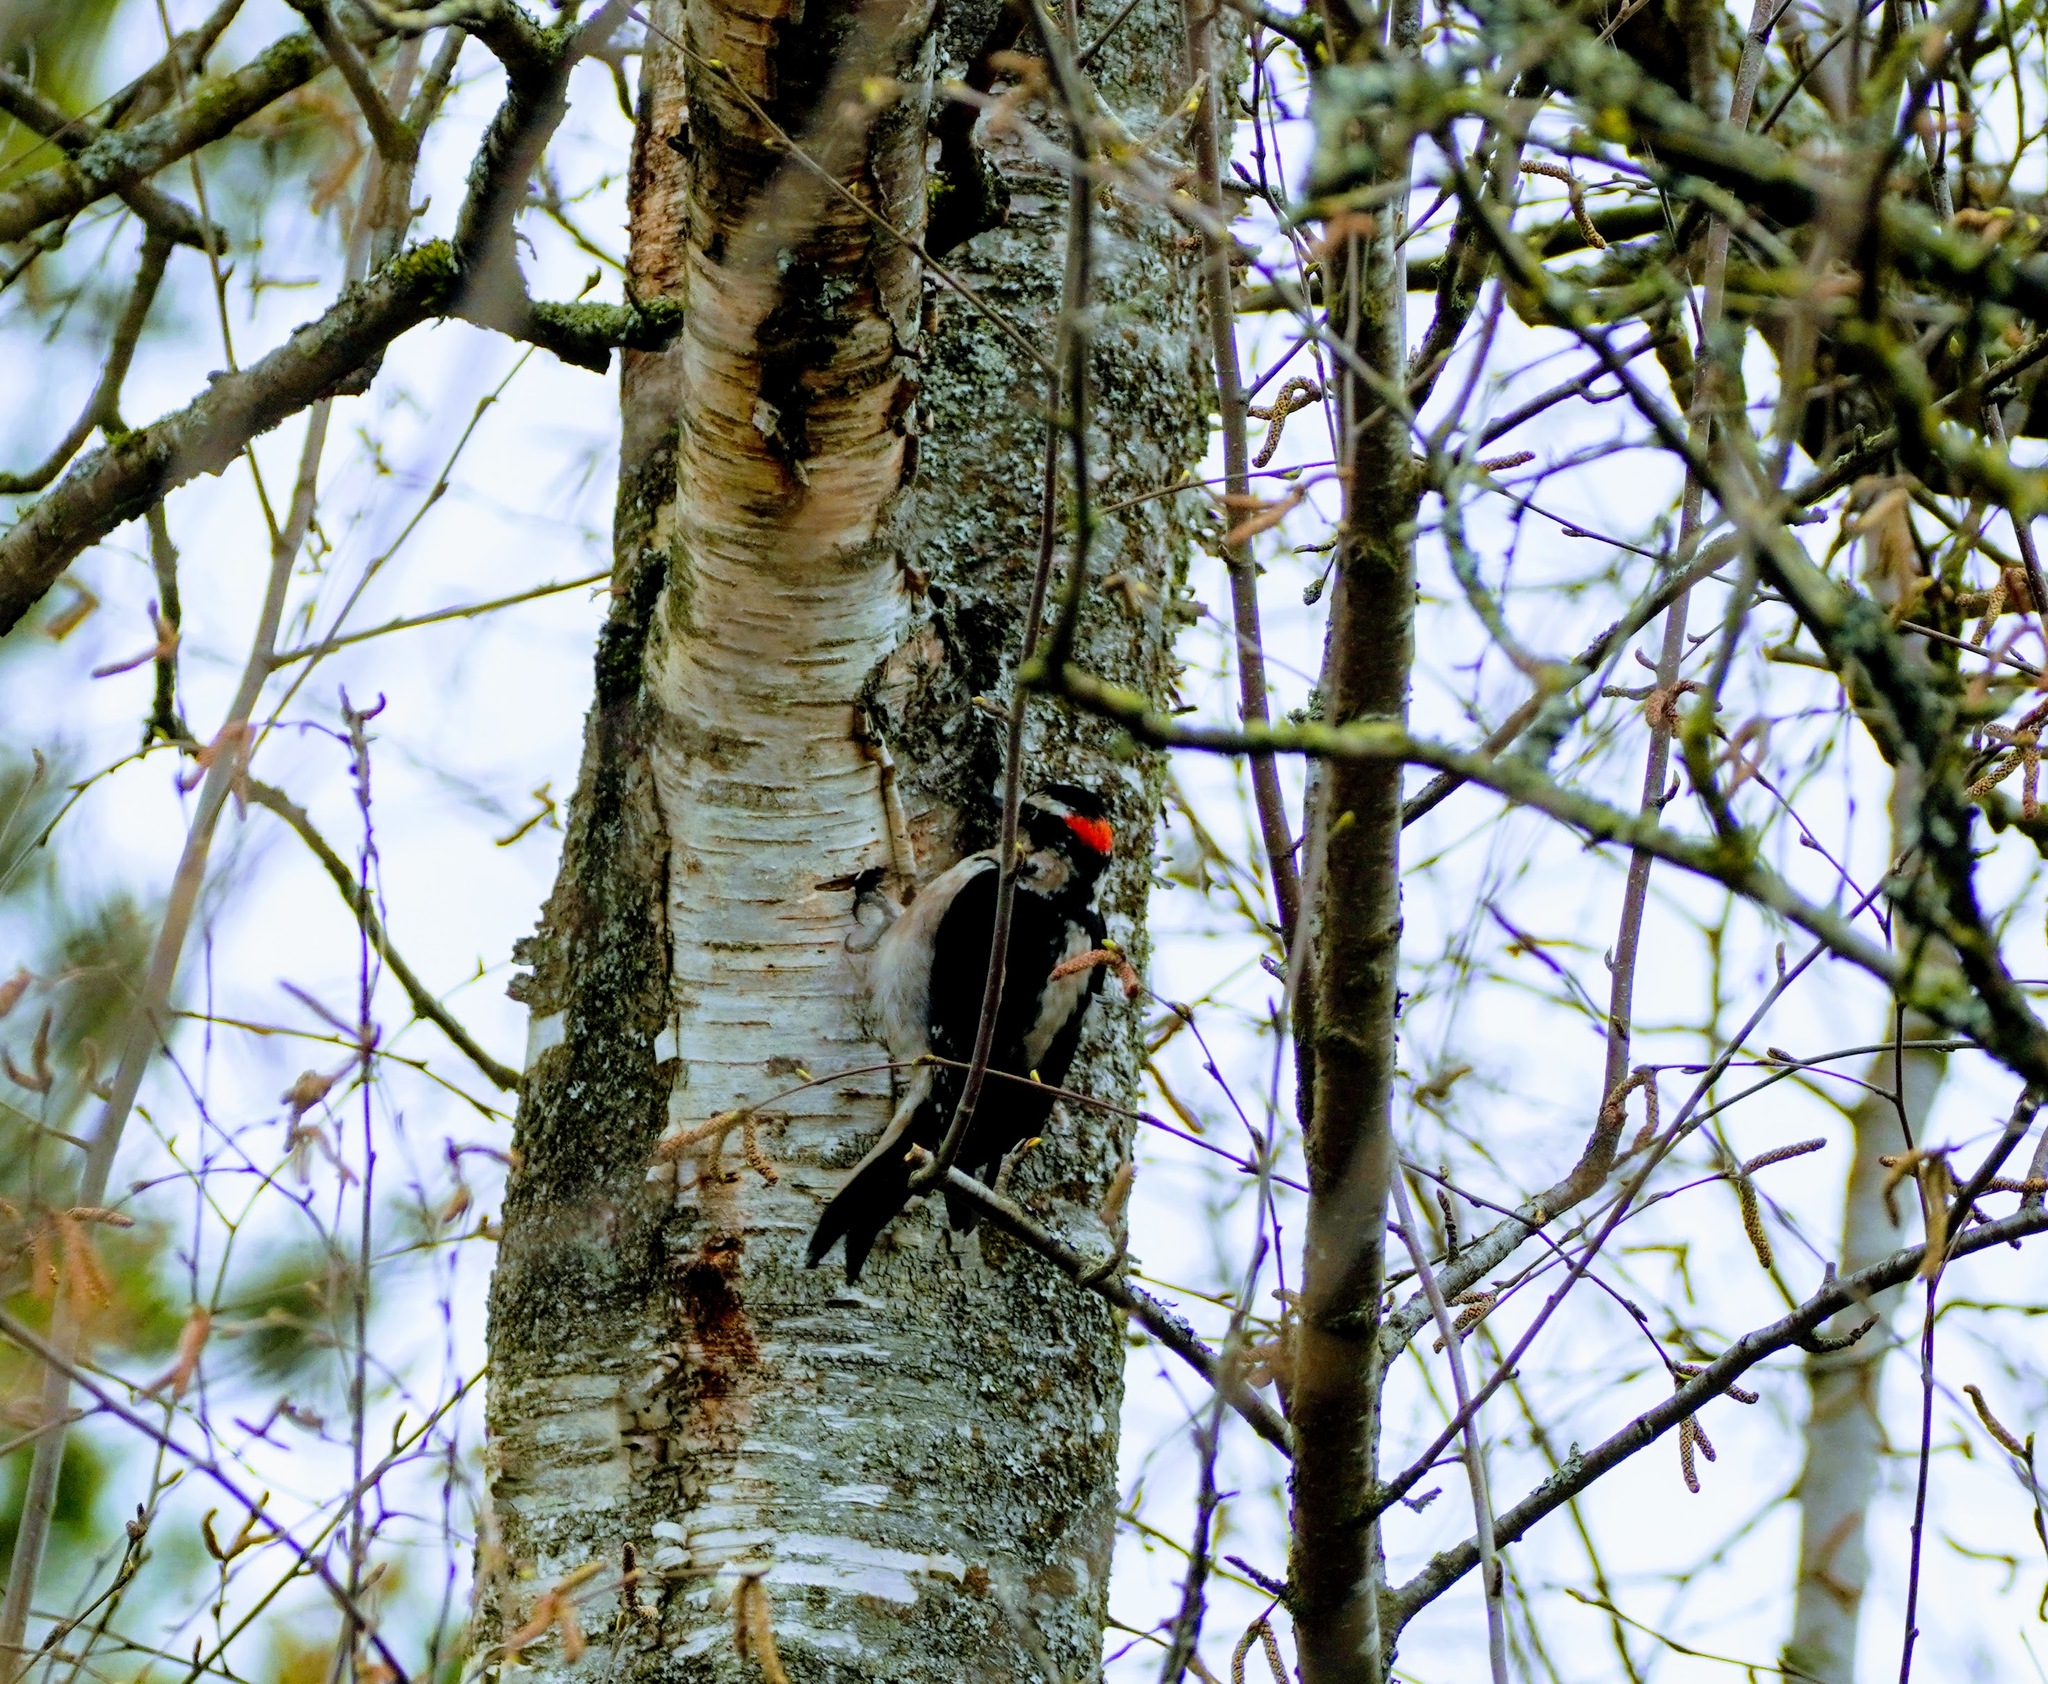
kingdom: Animalia
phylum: Chordata
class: Aves
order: Piciformes
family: Picidae
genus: Leuconotopicus
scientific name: Leuconotopicus villosus
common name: Hairy woodpecker
